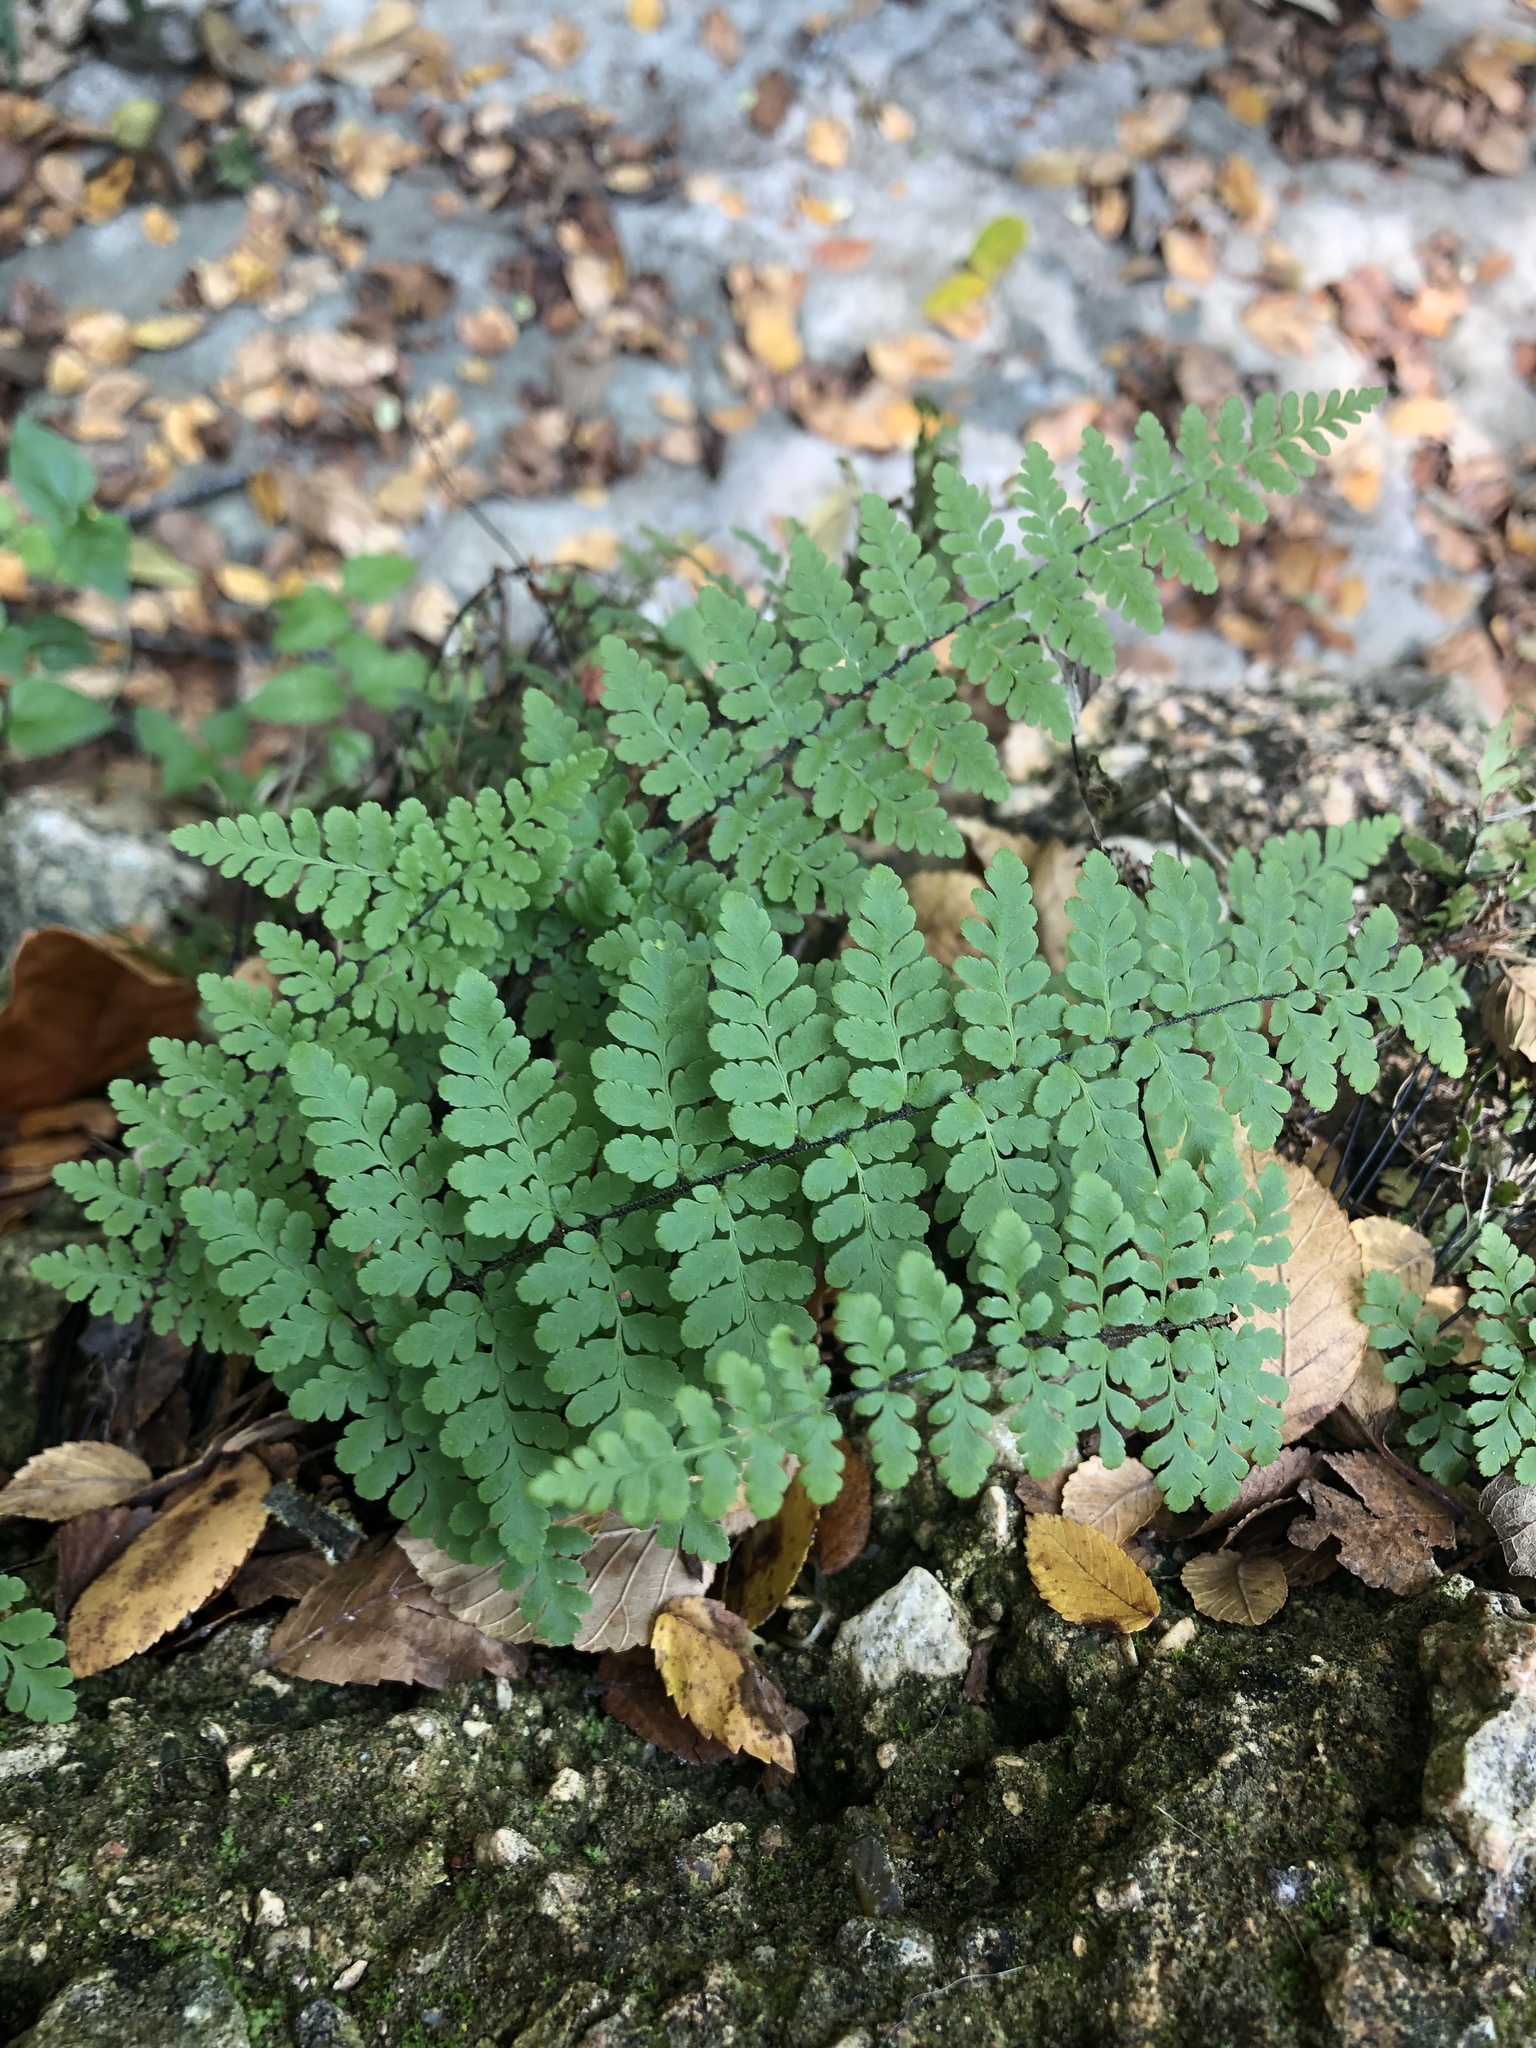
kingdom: Plantae
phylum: Tracheophyta
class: Polypodiopsida
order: Polypodiales
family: Pteridaceae
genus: Myriopteris
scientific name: Myriopteris alabamensis
